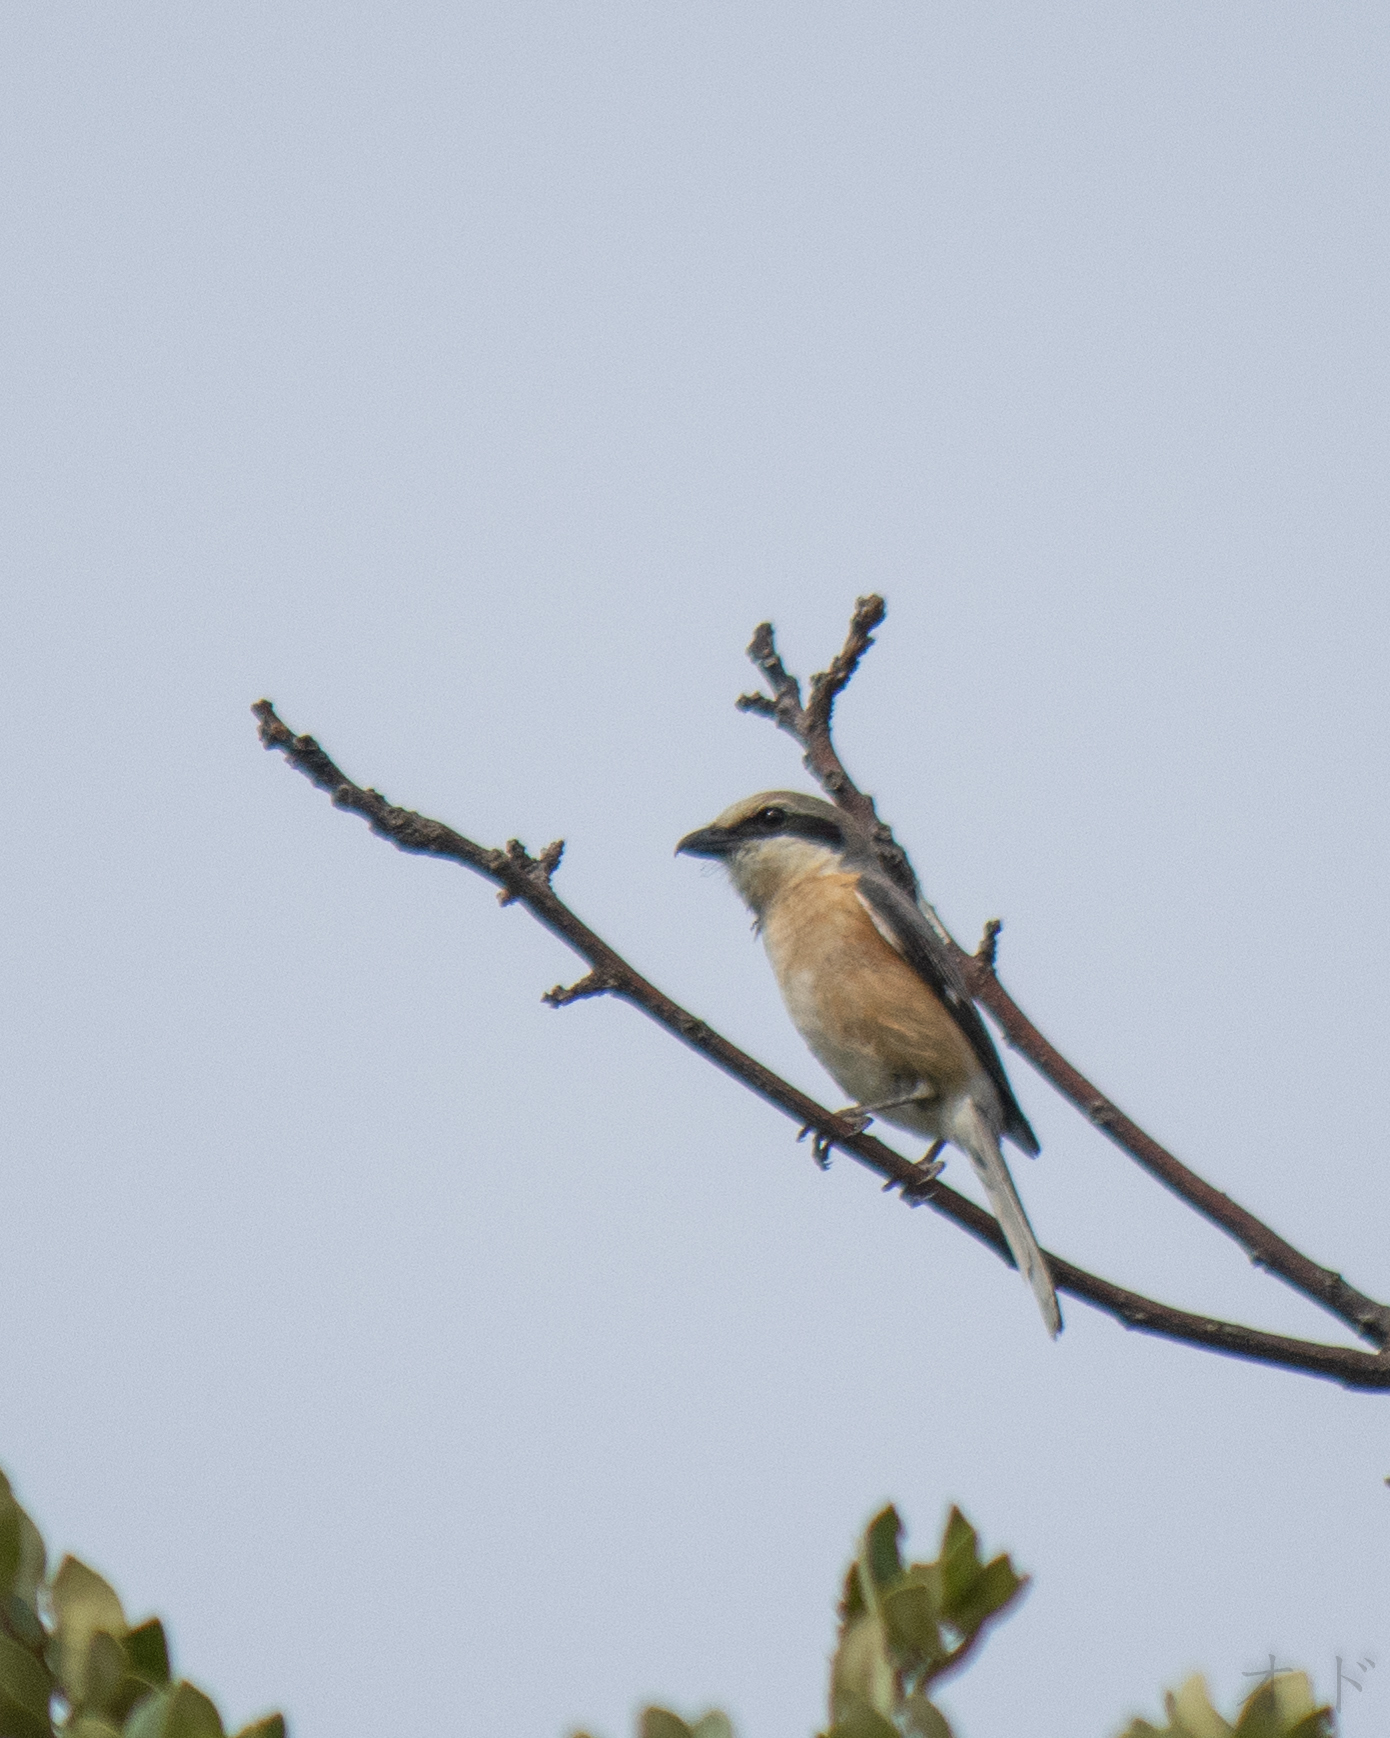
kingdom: Animalia
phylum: Chordata
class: Aves
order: Passeriformes
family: Laniidae
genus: Lanius
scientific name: Lanius bucephalus
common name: Bull-headed shrike
